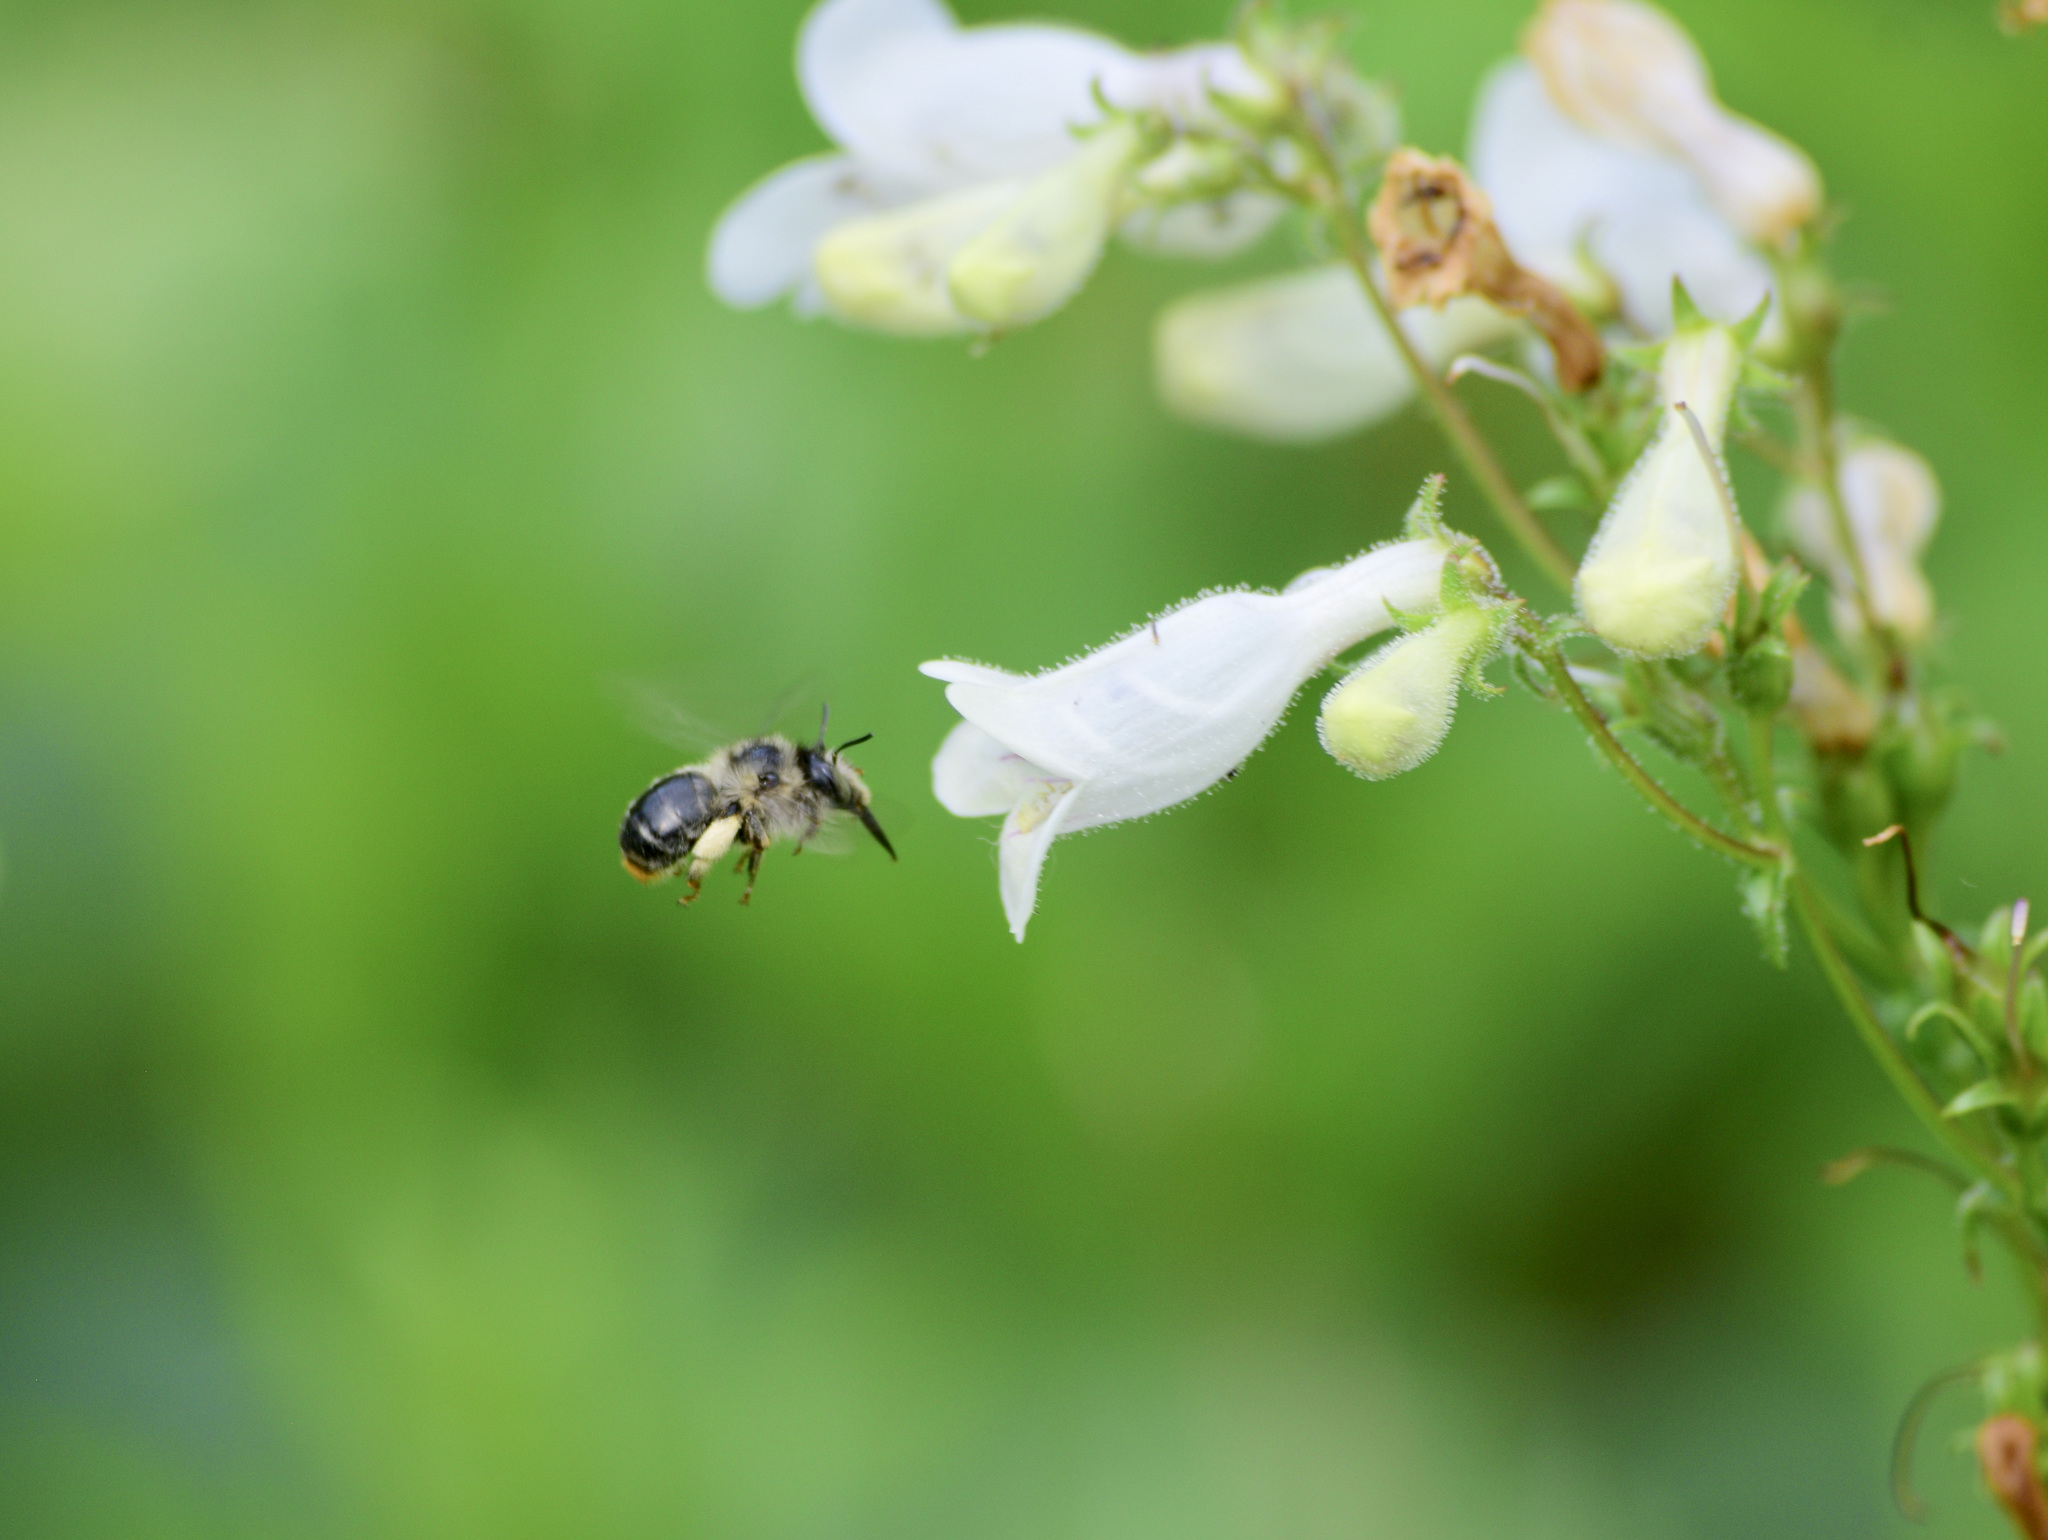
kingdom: Animalia
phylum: Arthropoda
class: Insecta
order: Hymenoptera
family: Apidae
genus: Anthophora
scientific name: Anthophora terminalis
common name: Orange-tipped wood-digger bee
